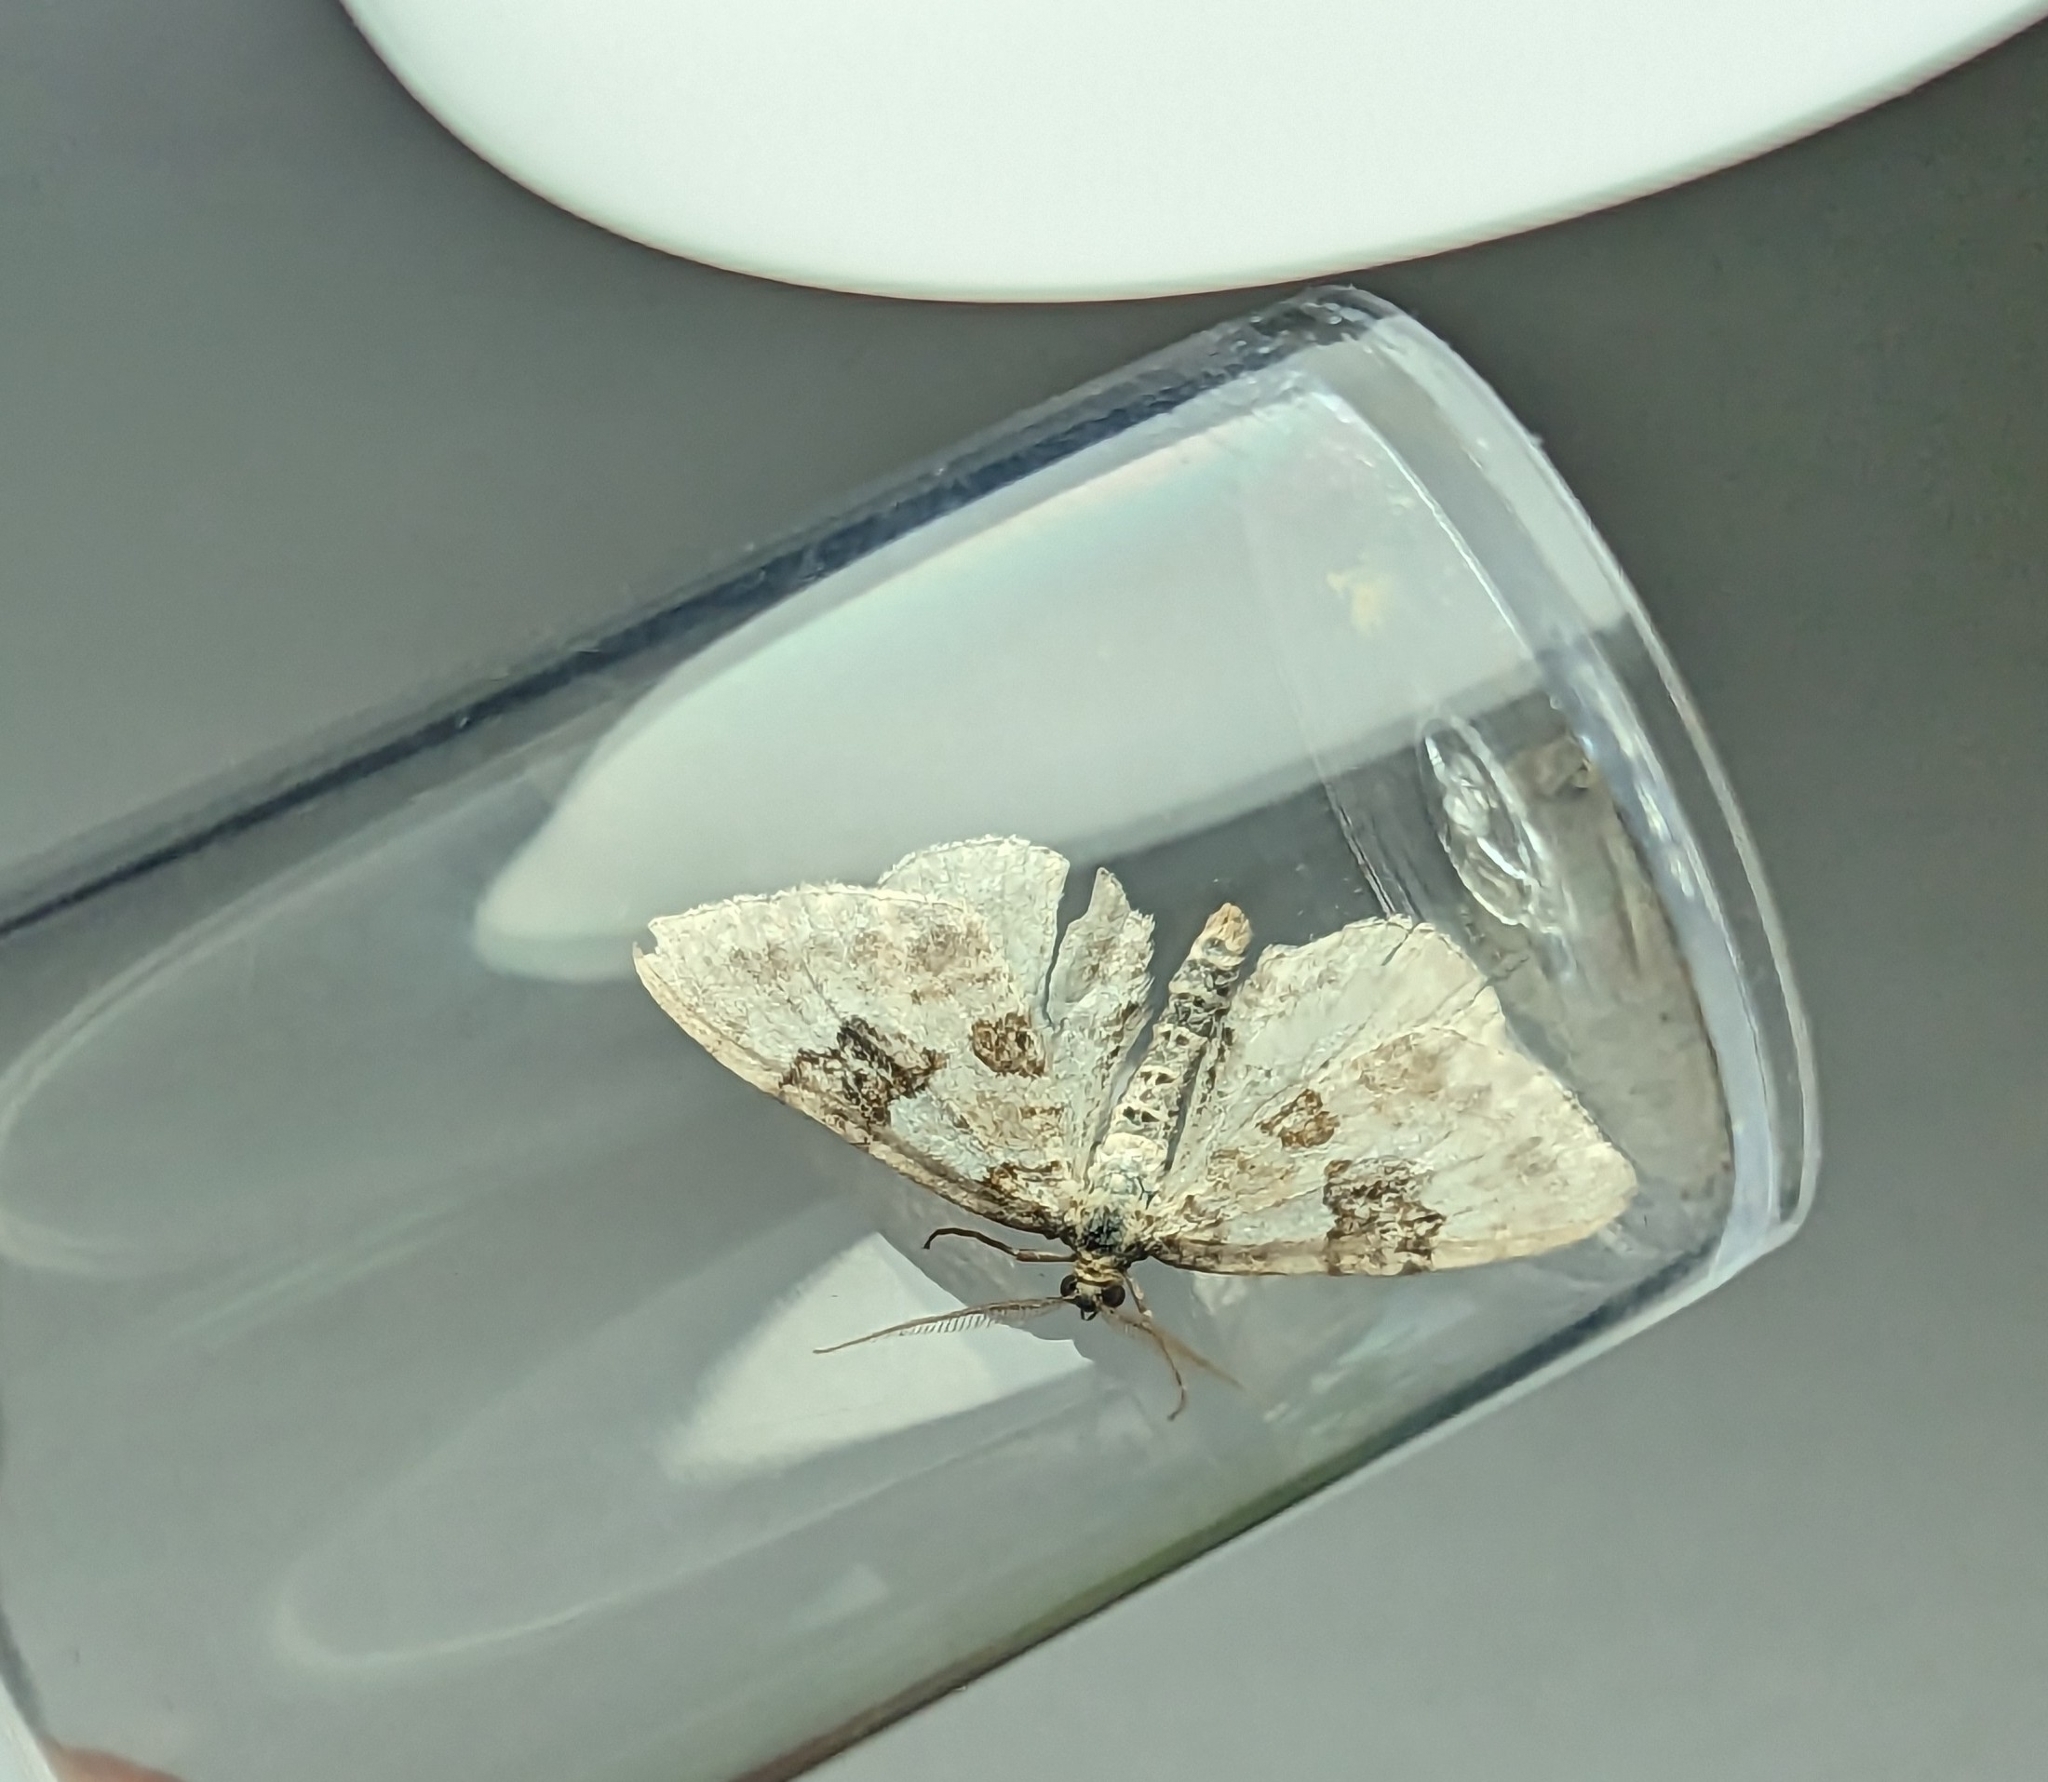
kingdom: Animalia
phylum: Arthropoda
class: Insecta
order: Lepidoptera
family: Geometridae
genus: Xanthorhoe
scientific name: Xanthorhoe montanata
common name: Silver-ground carpet
